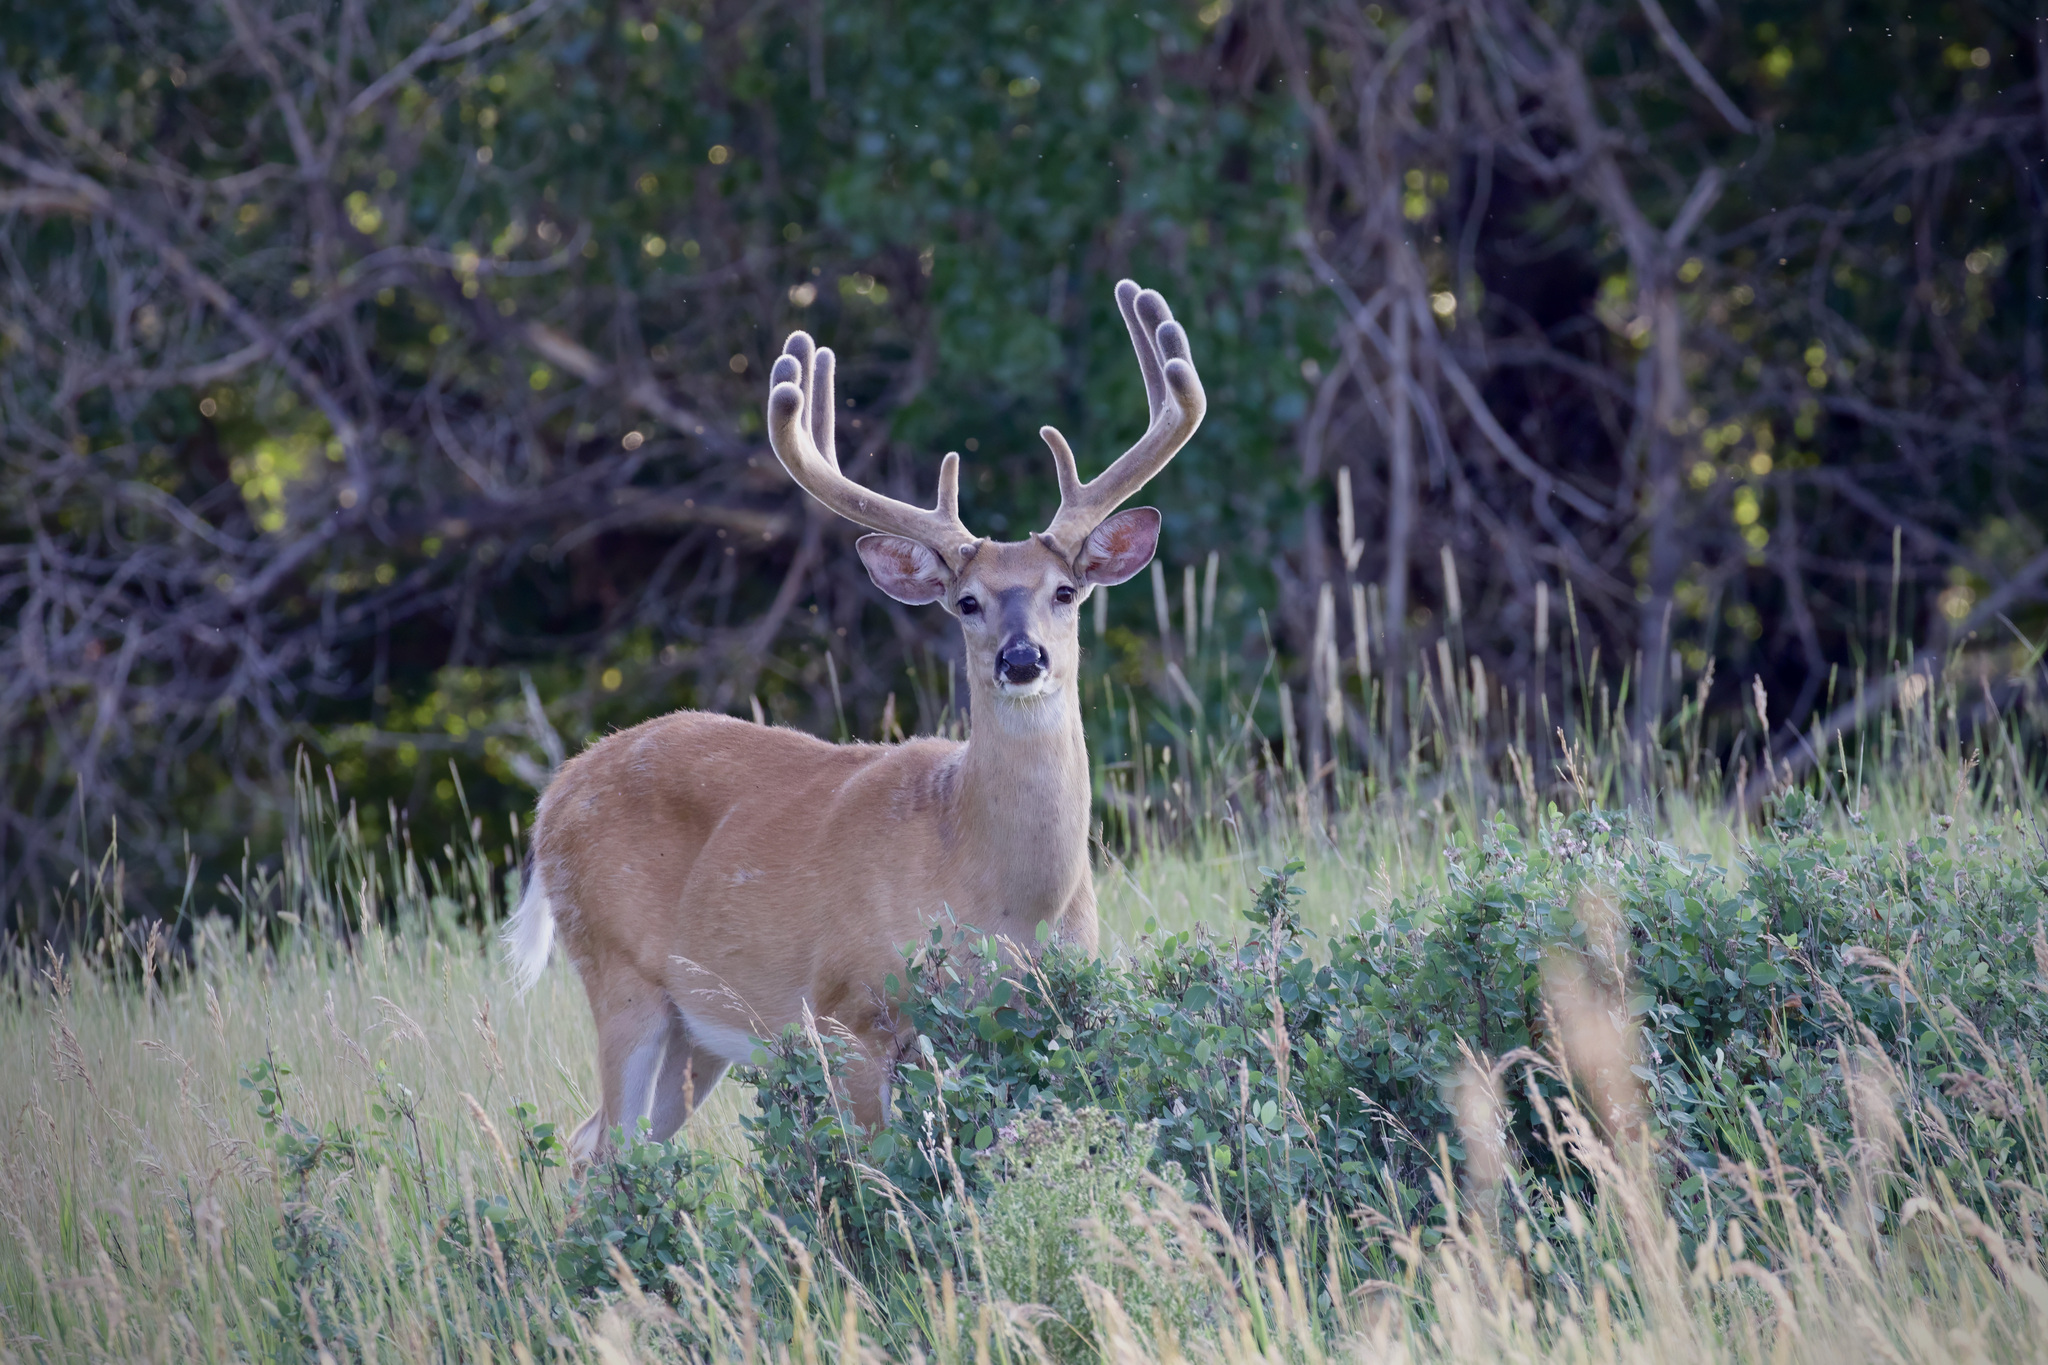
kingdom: Animalia
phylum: Chordata
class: Mammalia
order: Artiodactyla
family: Cervidae
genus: Odocoileus
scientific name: Odocoileus virginianus
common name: White-tailed deer
